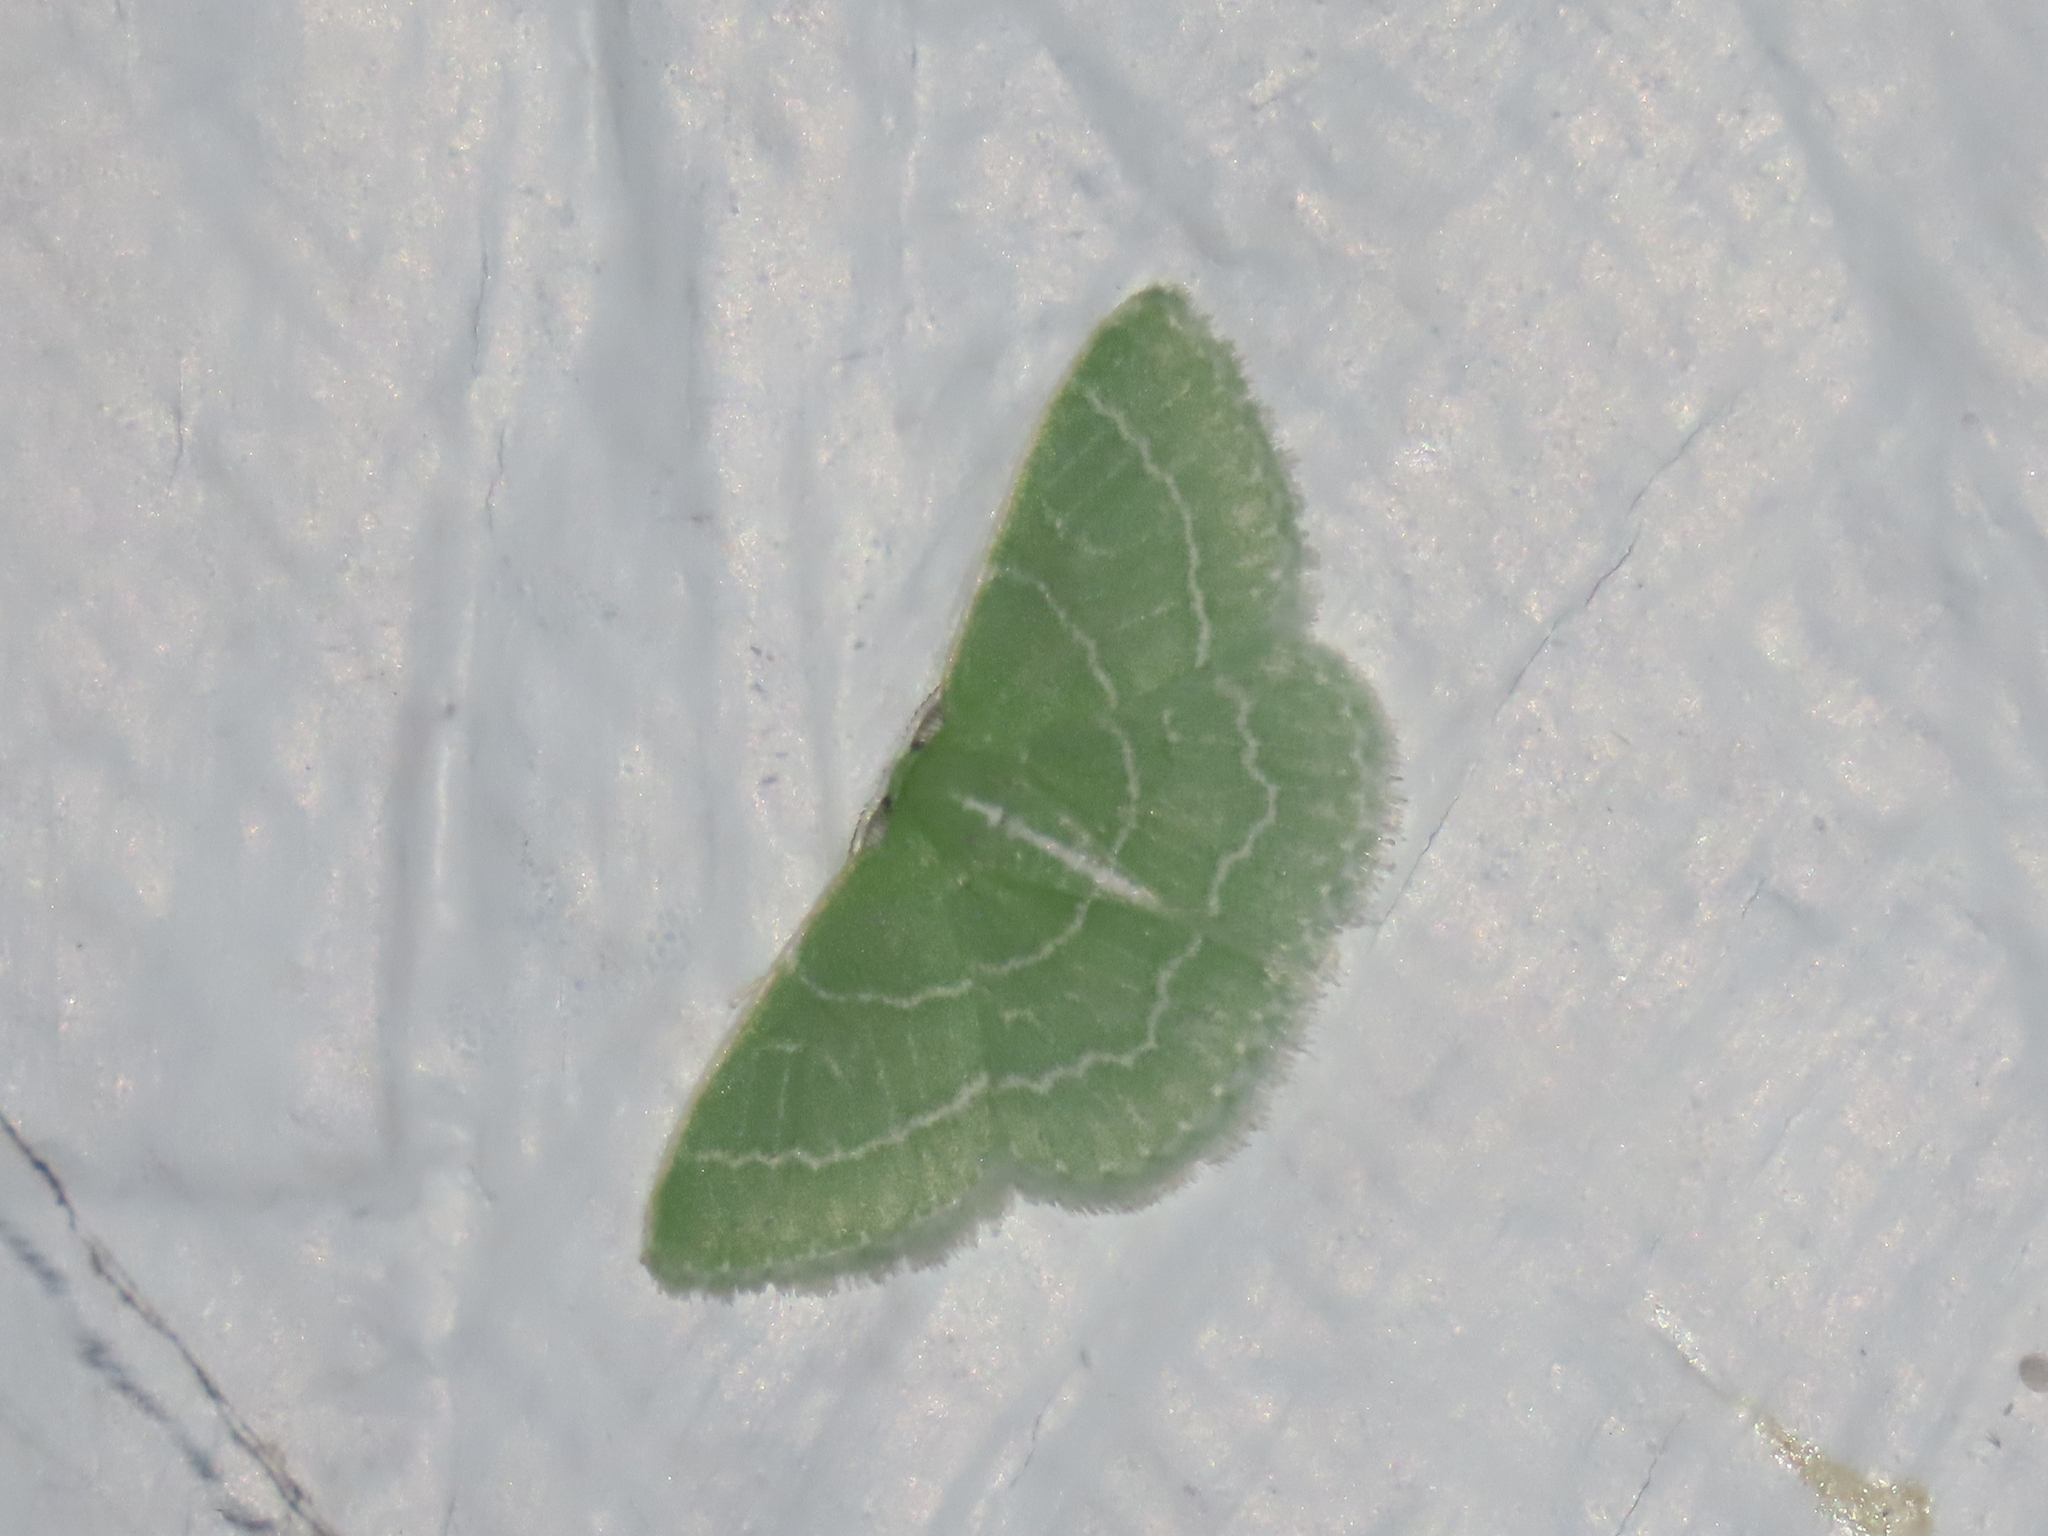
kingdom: Animalia
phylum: Arthropoda
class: Insecta
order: Lepidoptera
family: Geometridae
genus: Synchlora
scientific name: Synchlora aerata
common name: Wavy-lined emerald
